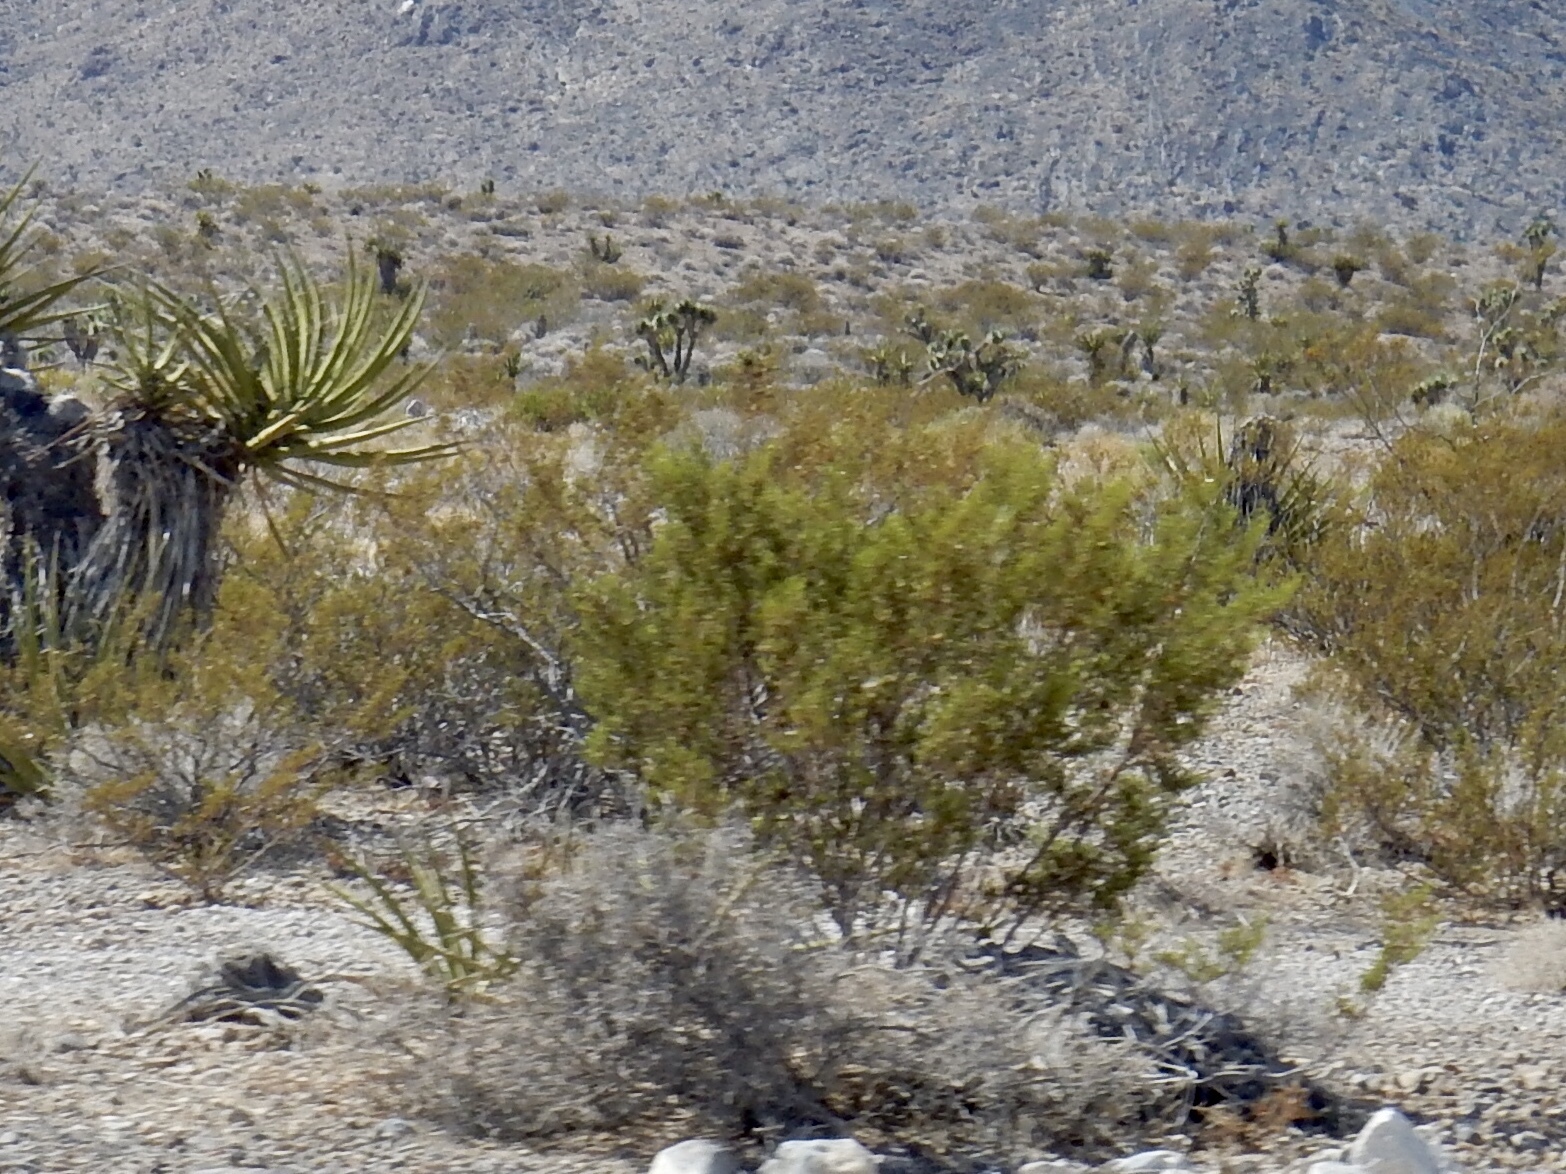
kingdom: Plantae
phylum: Tracheophyta
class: Magnoliopsida
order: Zygophyllales
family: Zygophyllaceae
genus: Larrea
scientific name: Larrea tridentata
